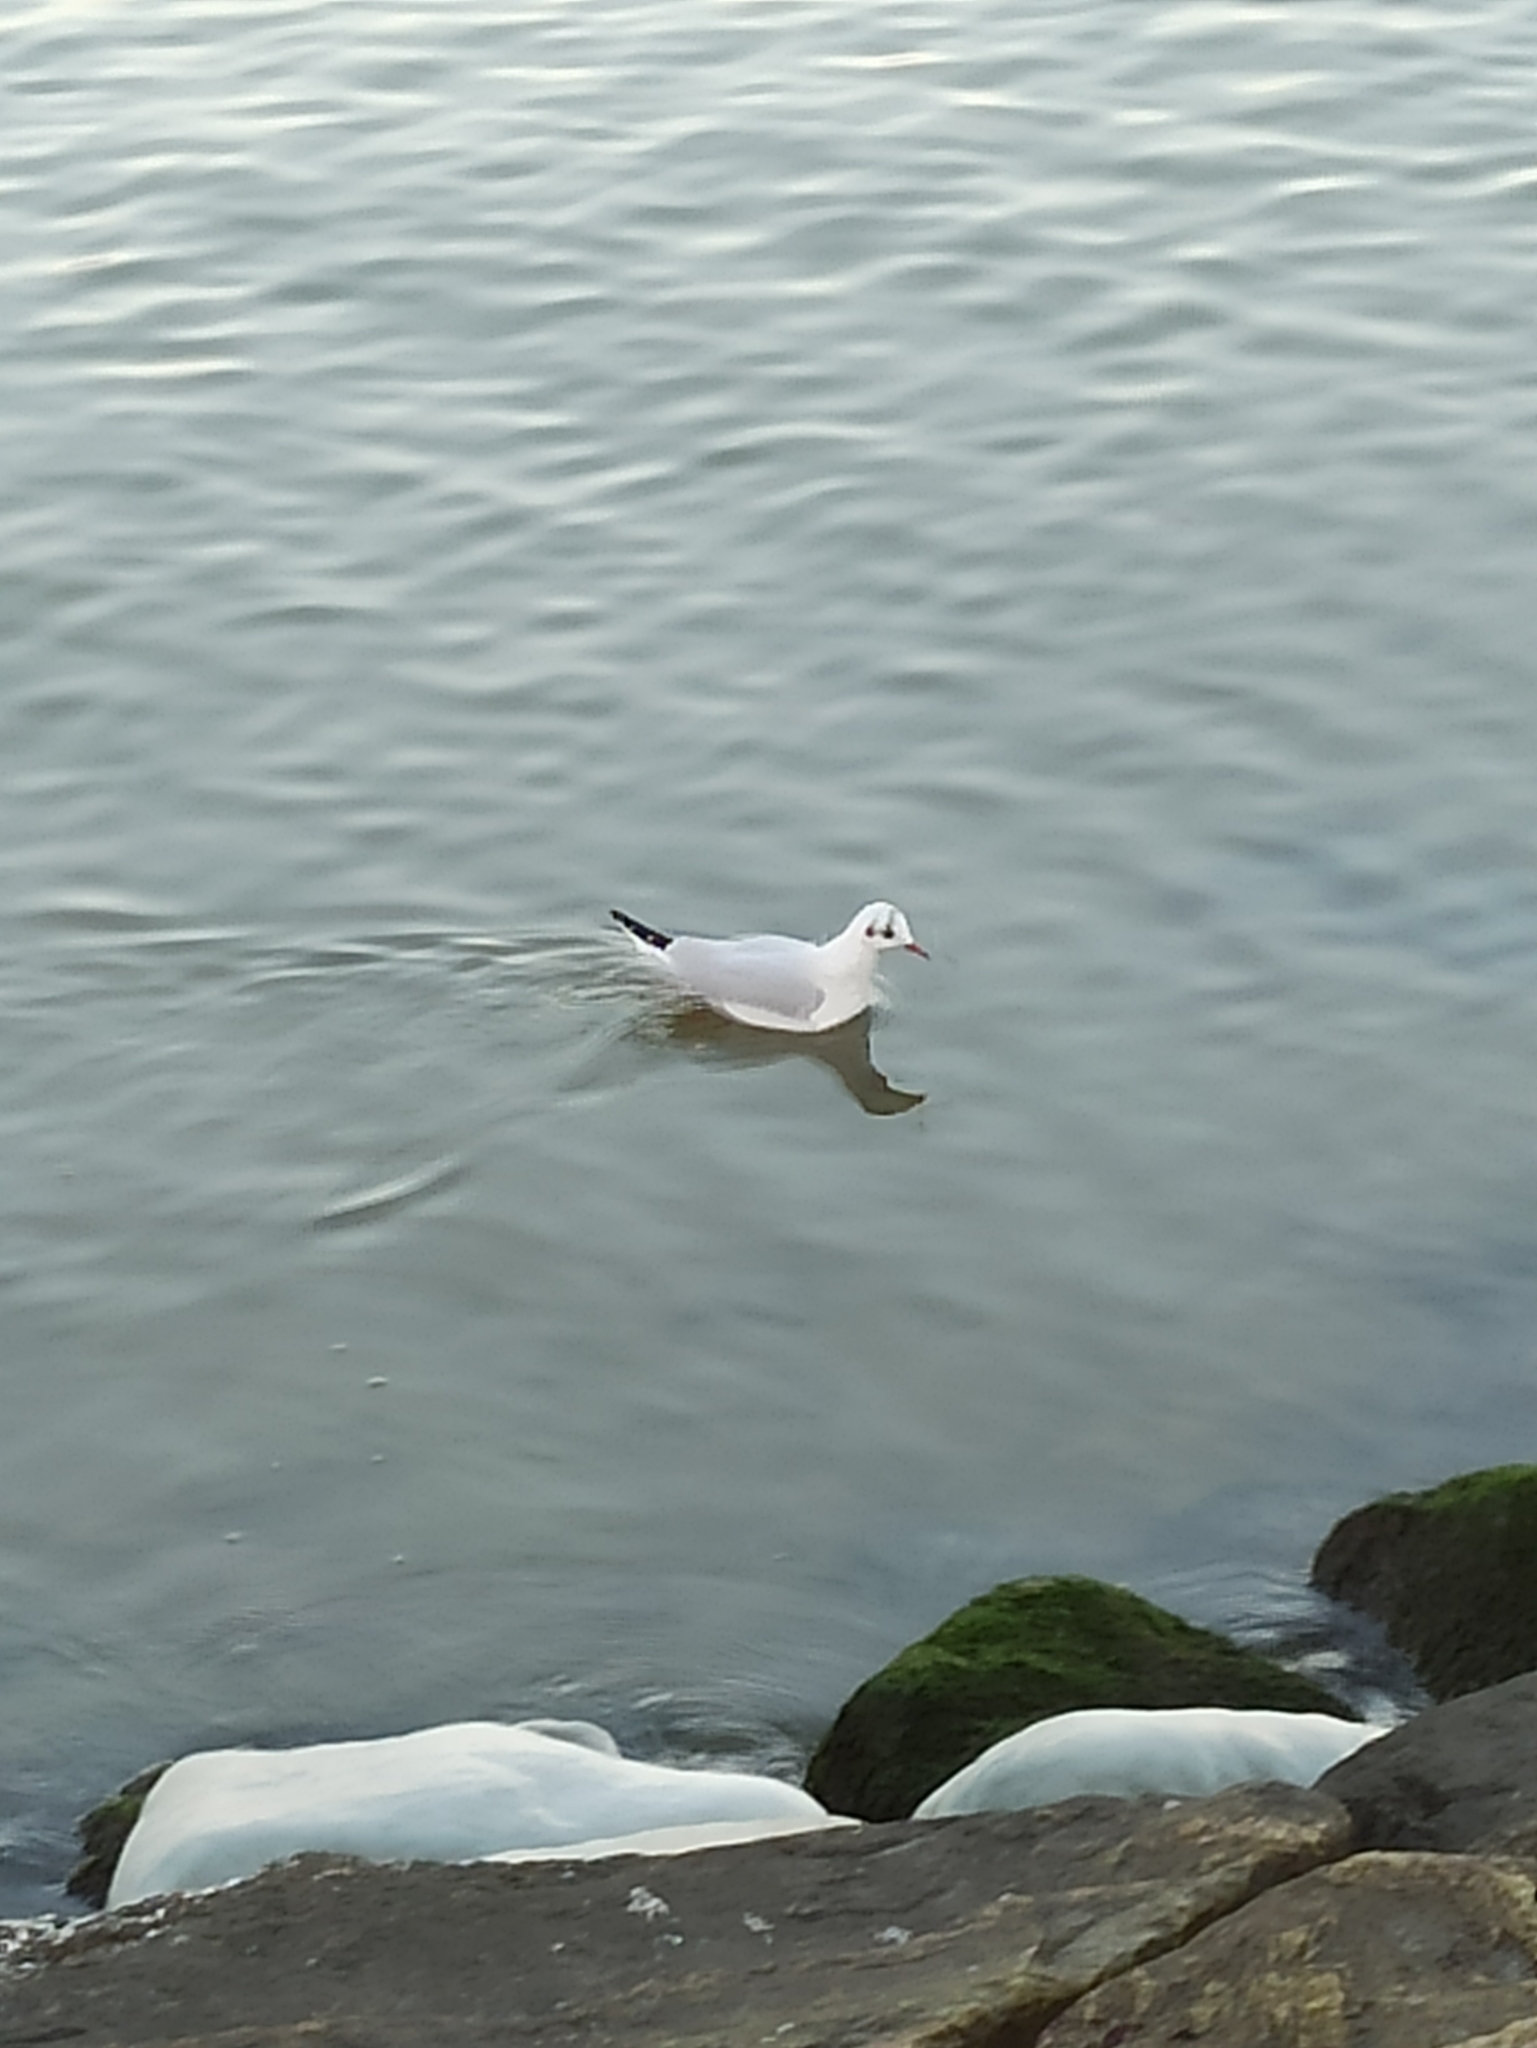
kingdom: Animalia
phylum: Chordata
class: Aves
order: Charadriiformes
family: Laridae
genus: Chroicocephalus
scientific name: Chroicocephalus ridibundus
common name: Black-headed gull
